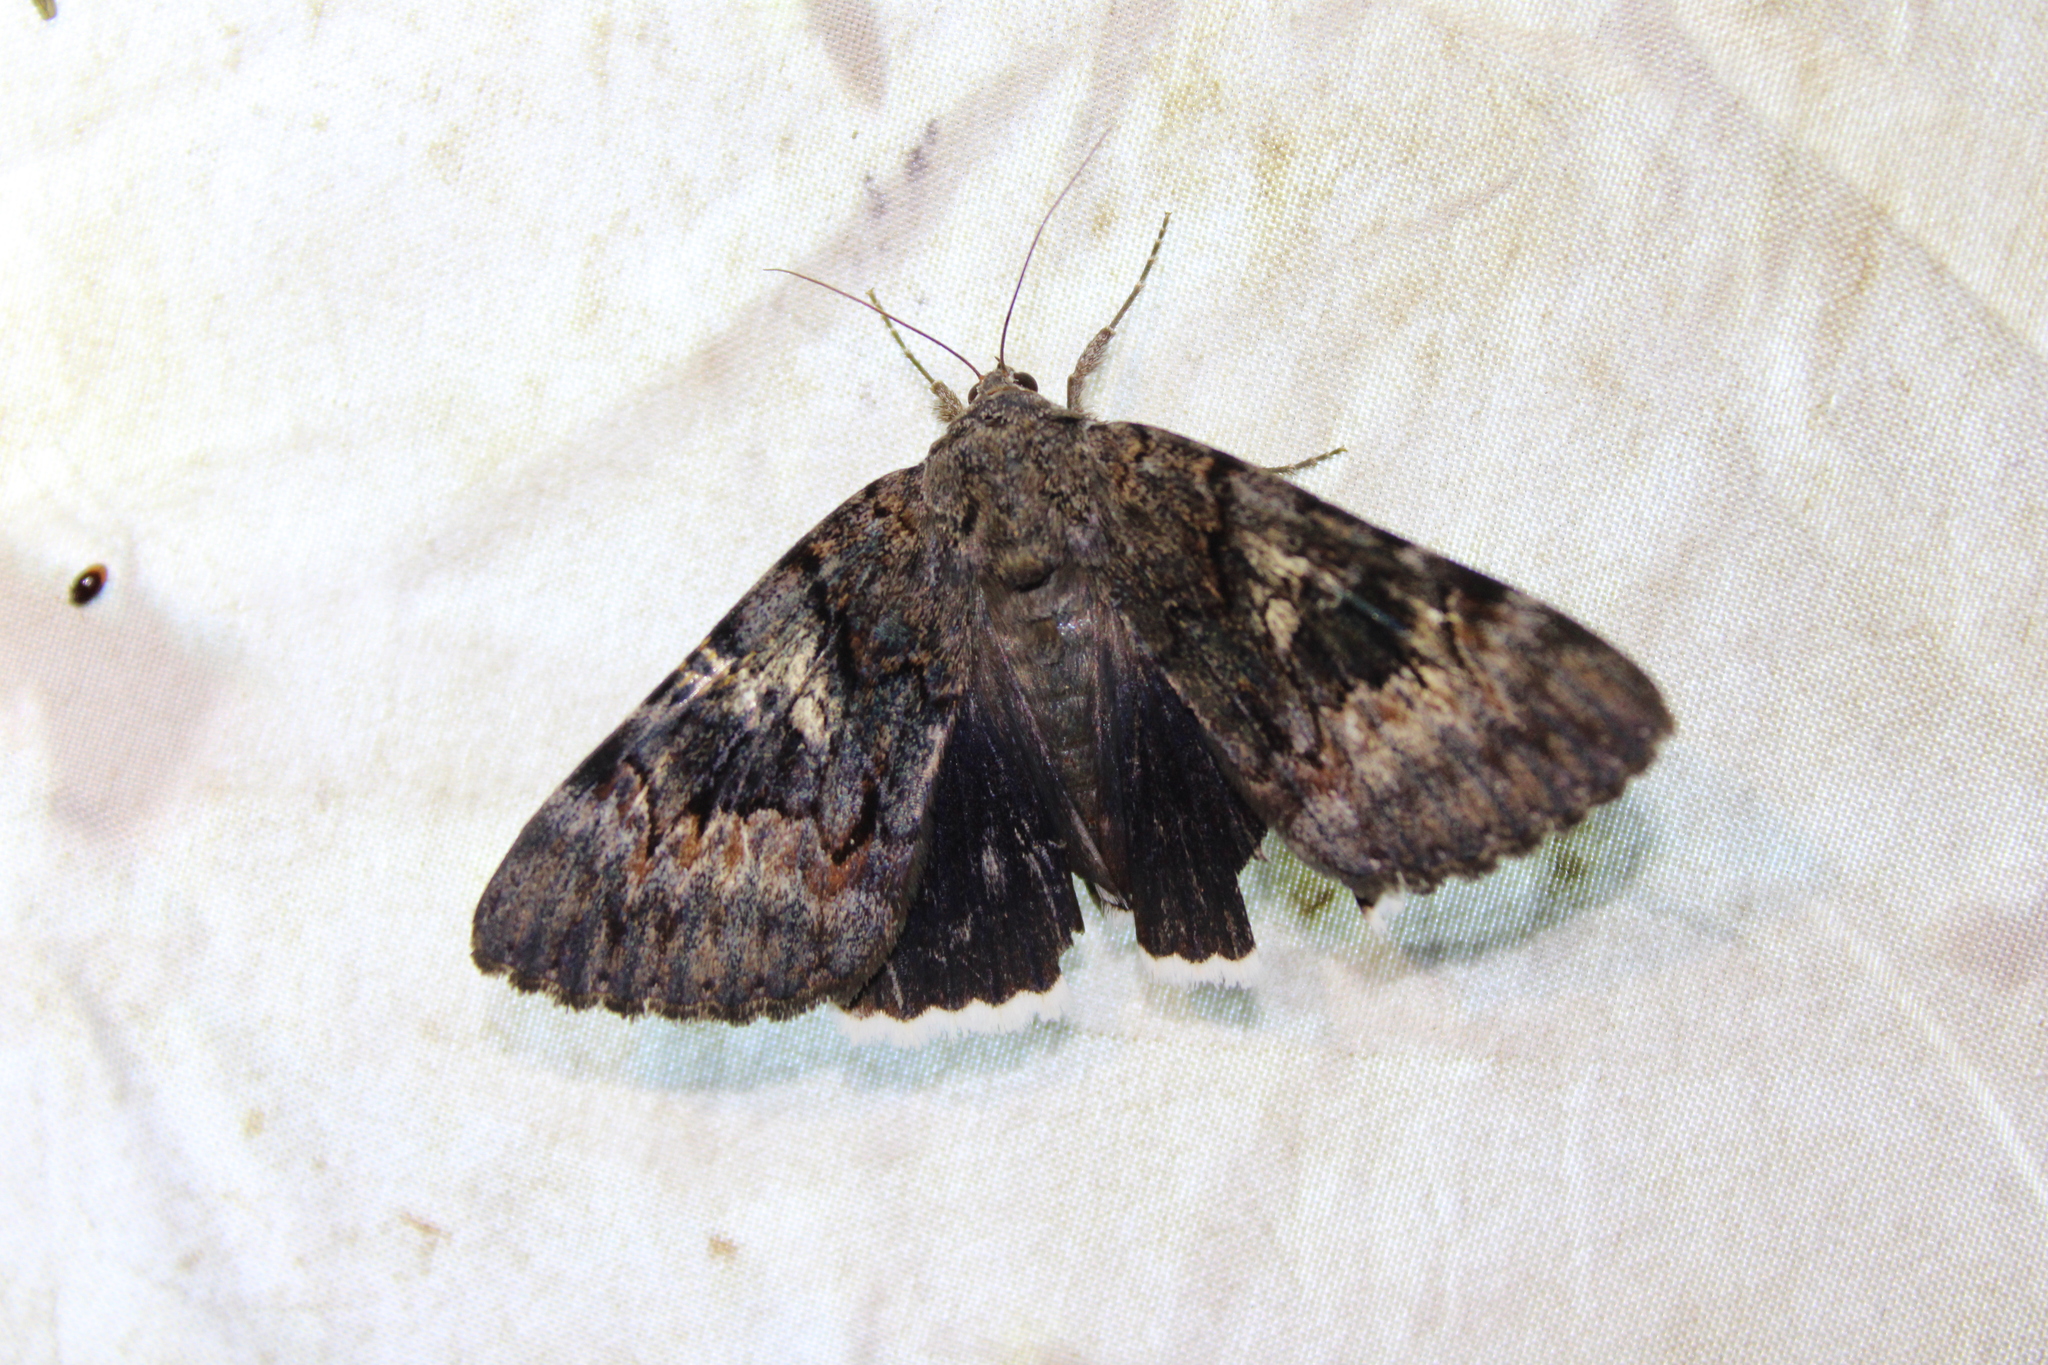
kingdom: Animalia
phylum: Arthropoda
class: Insecta
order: Lepidoptera
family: Erebidae
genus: Catocala
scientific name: Catocala epione
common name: Epione underwing
